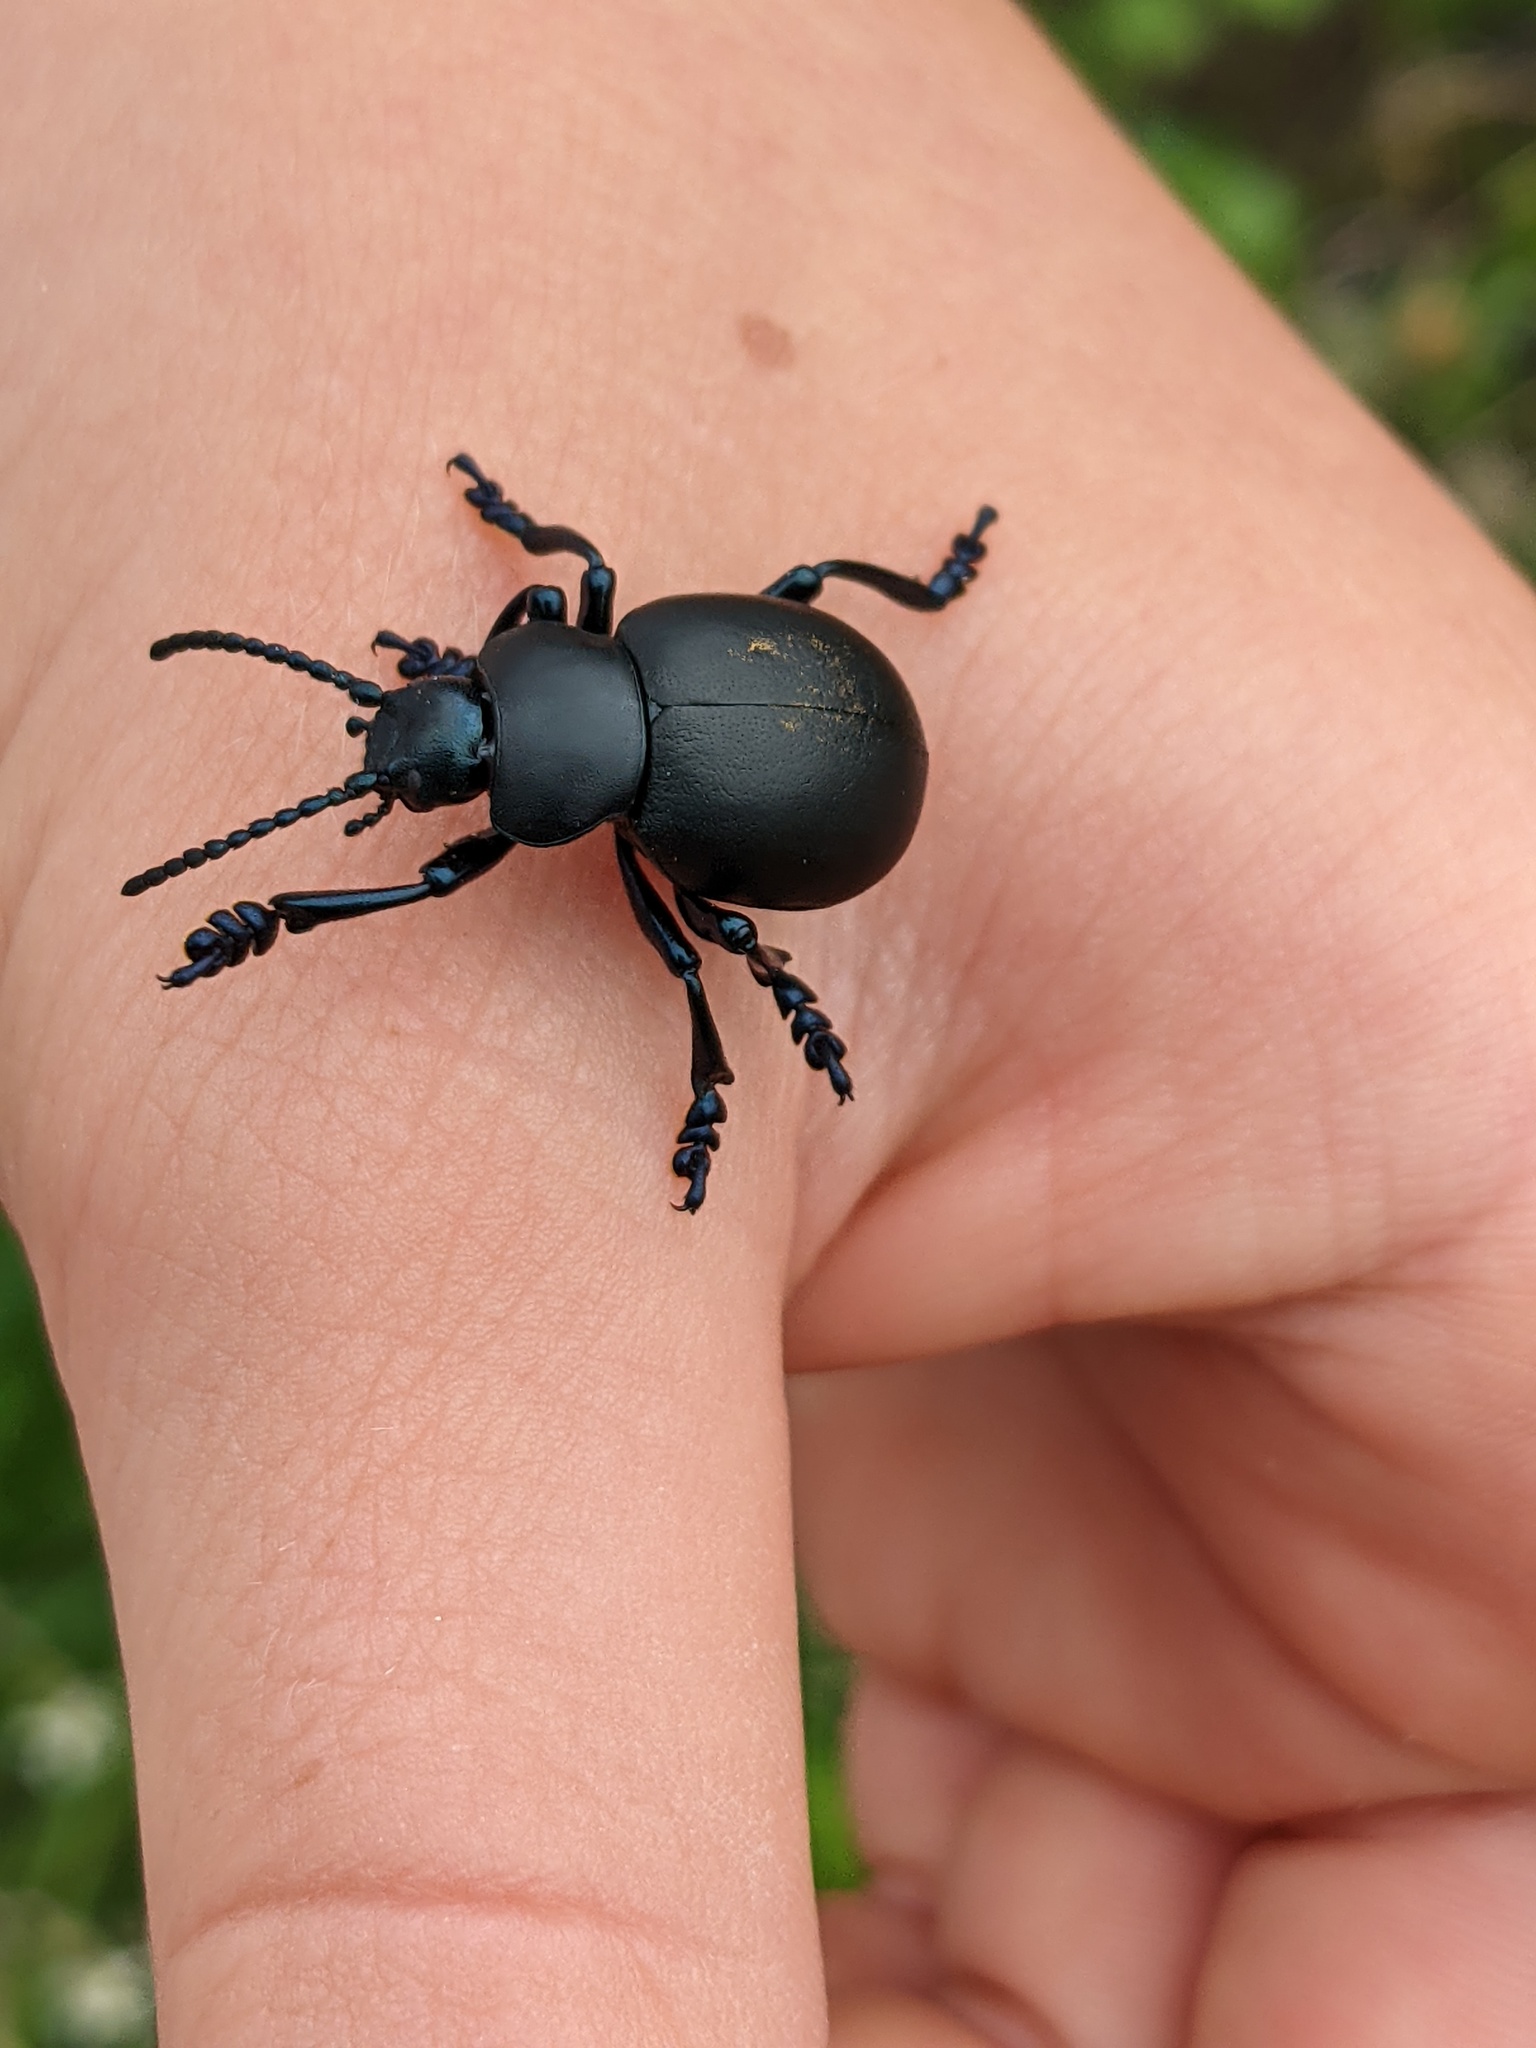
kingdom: Animalia
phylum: Arthropoda
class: Insecta
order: Coleoptera
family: Chrysomelidae
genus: Timarcha
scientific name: Timarcha tenebricosa
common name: Bloody-nosed beetle
